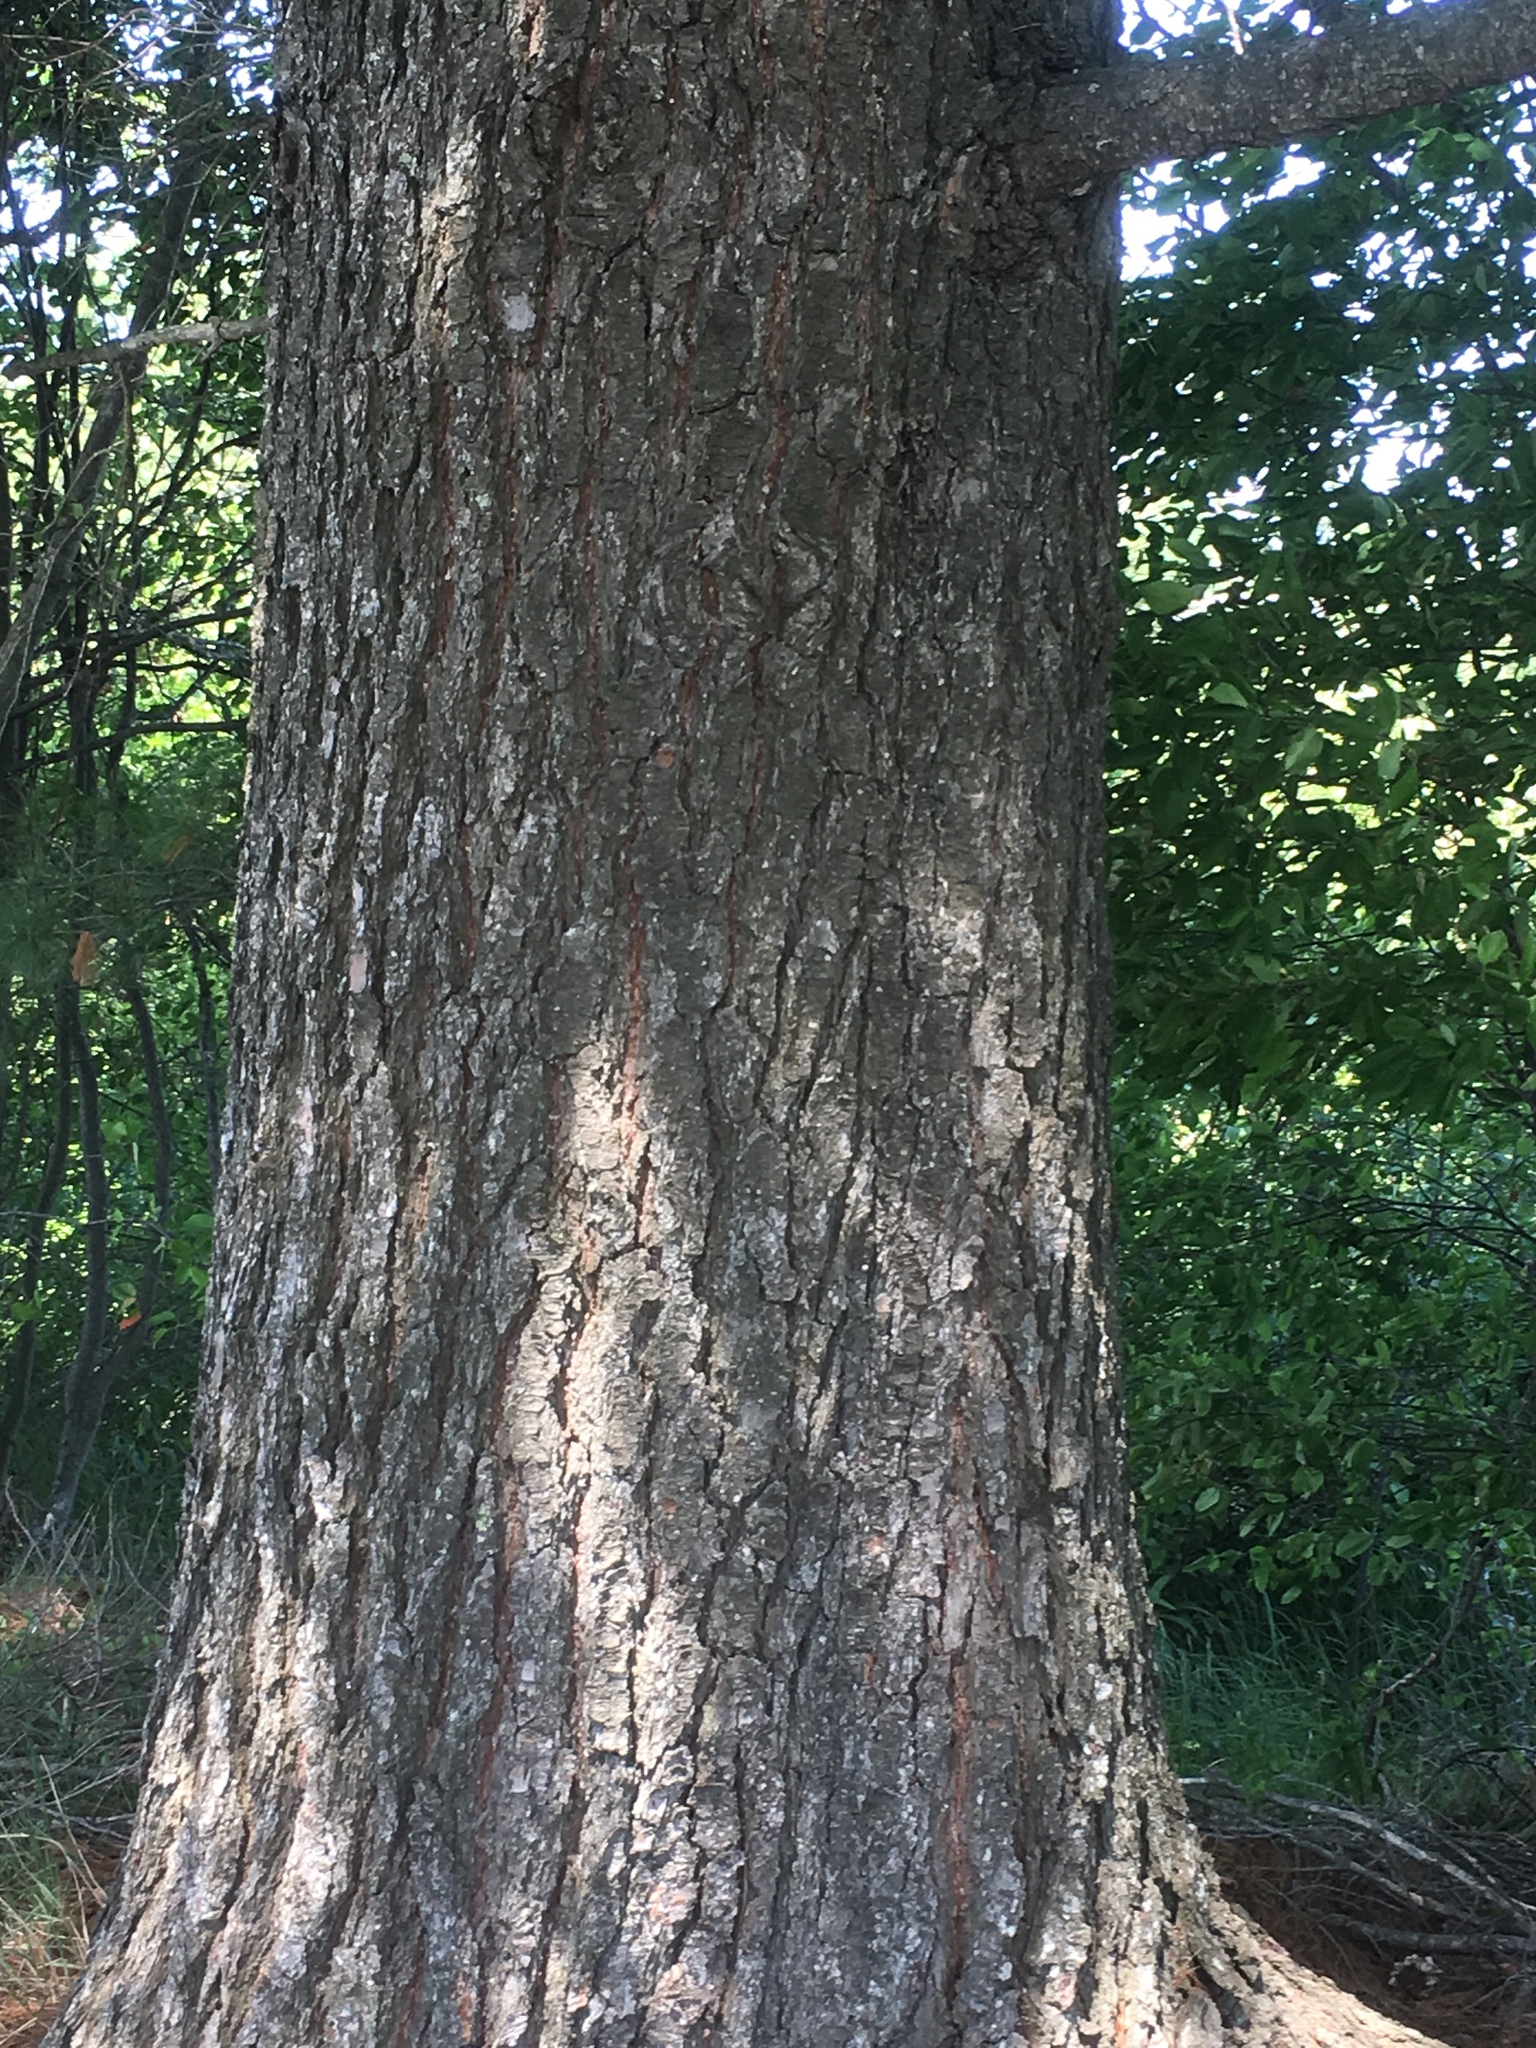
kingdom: Plantae
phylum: Tracheophyta
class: Pinopsida
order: Pinales
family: Pinaceae
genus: Pinus
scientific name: Pinus strobus
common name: Weymouth pine
